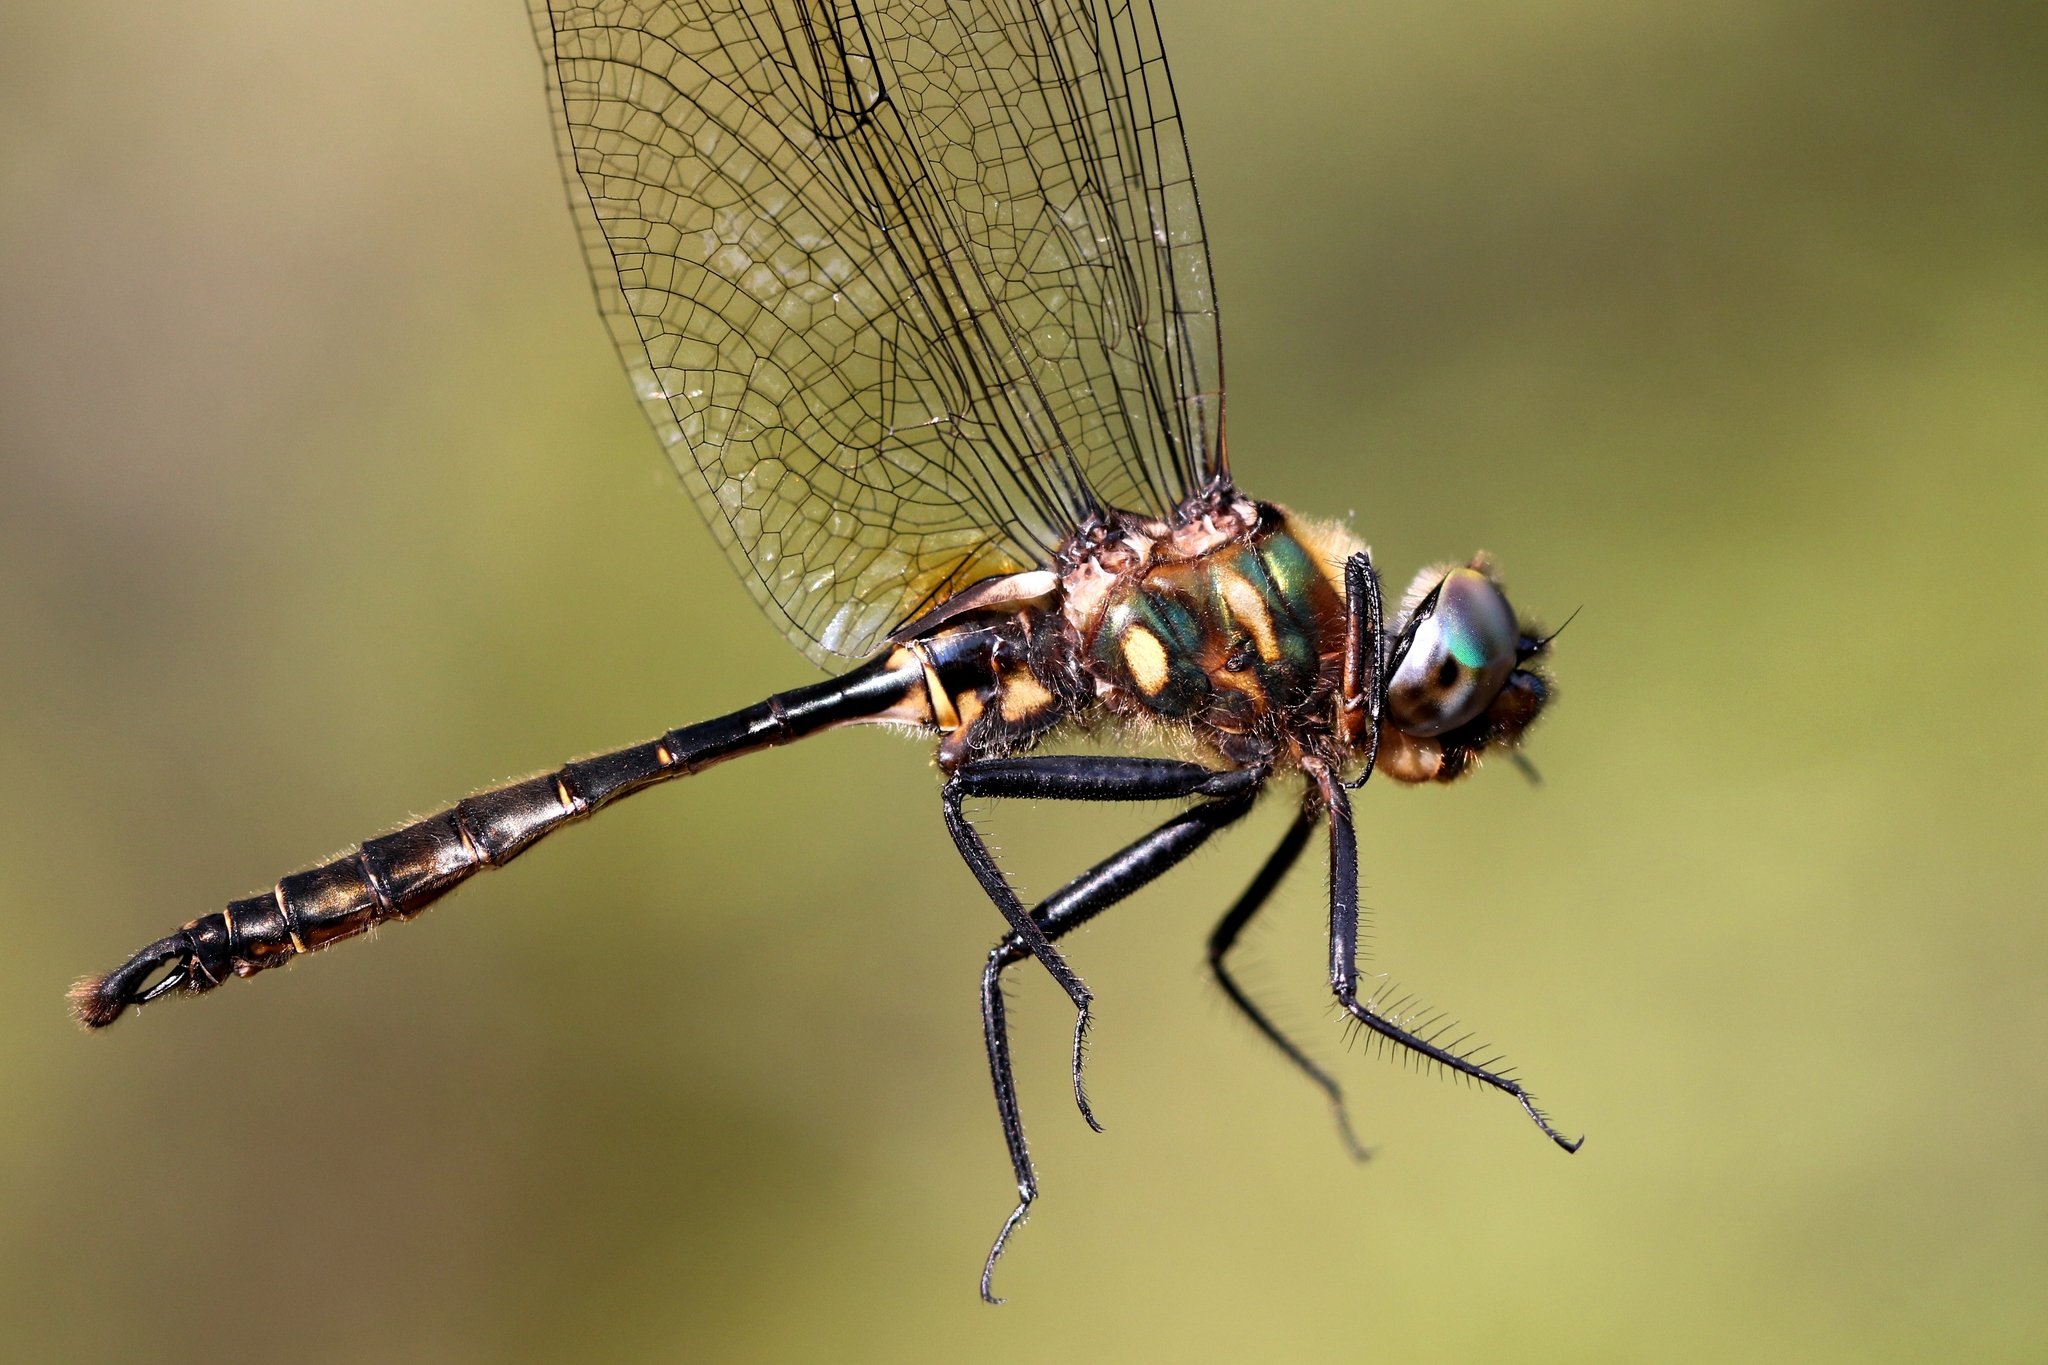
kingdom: Animalia
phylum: Arthropoda
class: Insecta
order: Odonata
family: Corduliidae
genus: Somatochlora
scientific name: Somatochlora walshii
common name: Brush-tipped emerald
